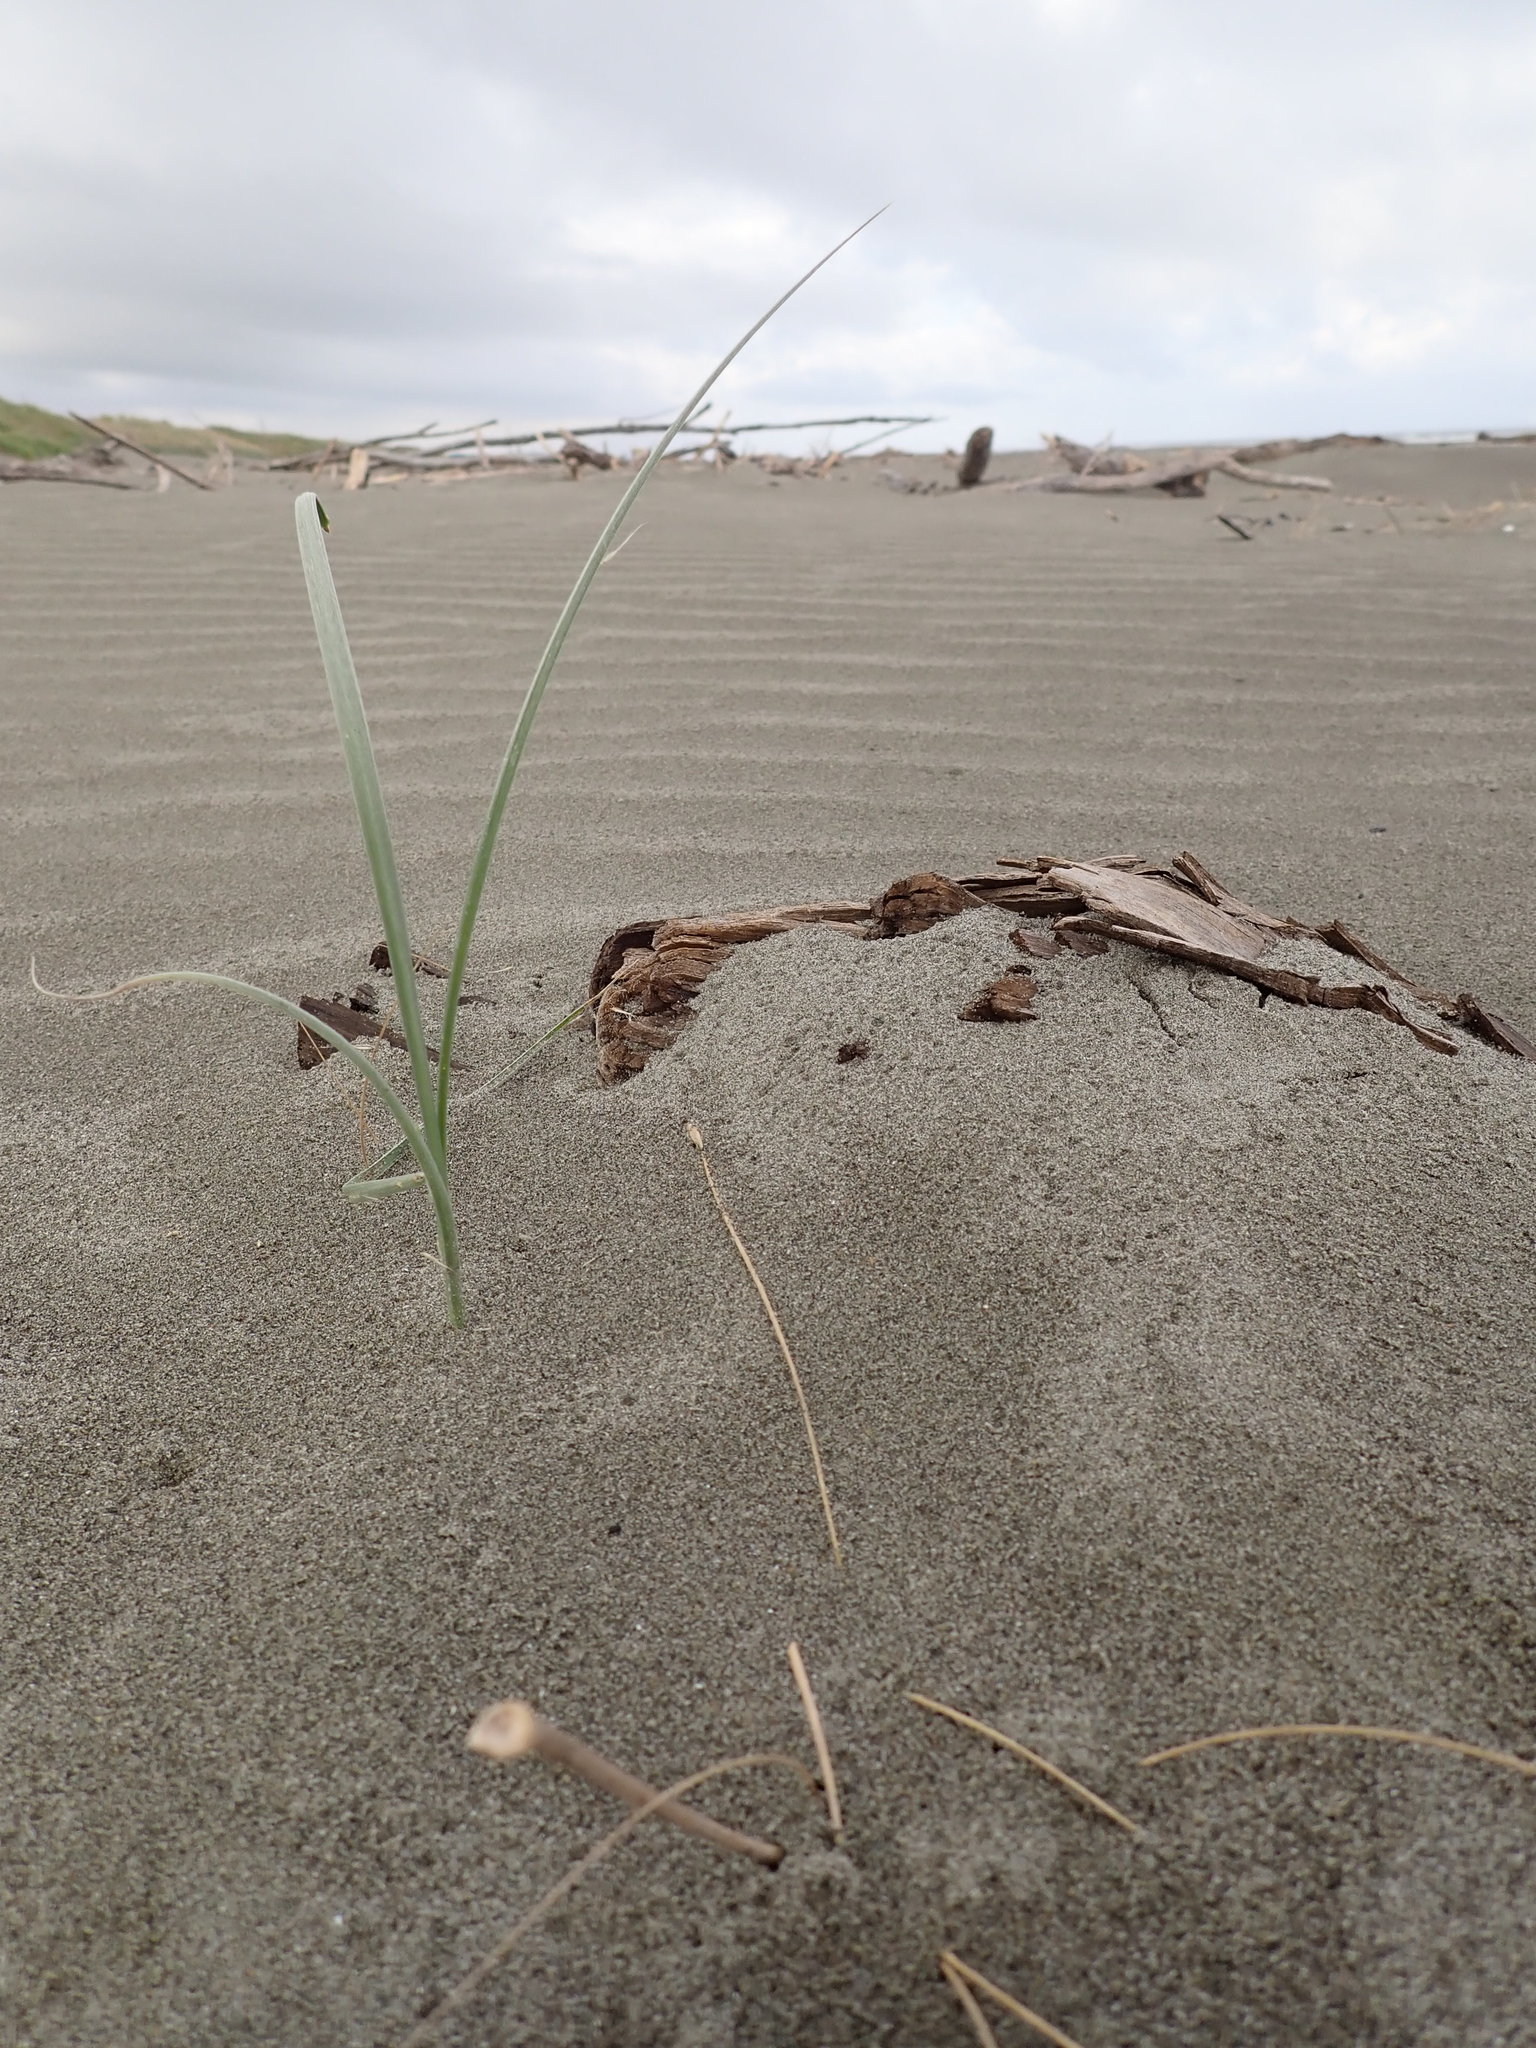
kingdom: Plantae
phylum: Tracheophyta
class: Liliopsida
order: Poales
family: Poaceae
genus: Spinifex
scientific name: Spinifex sericeus
